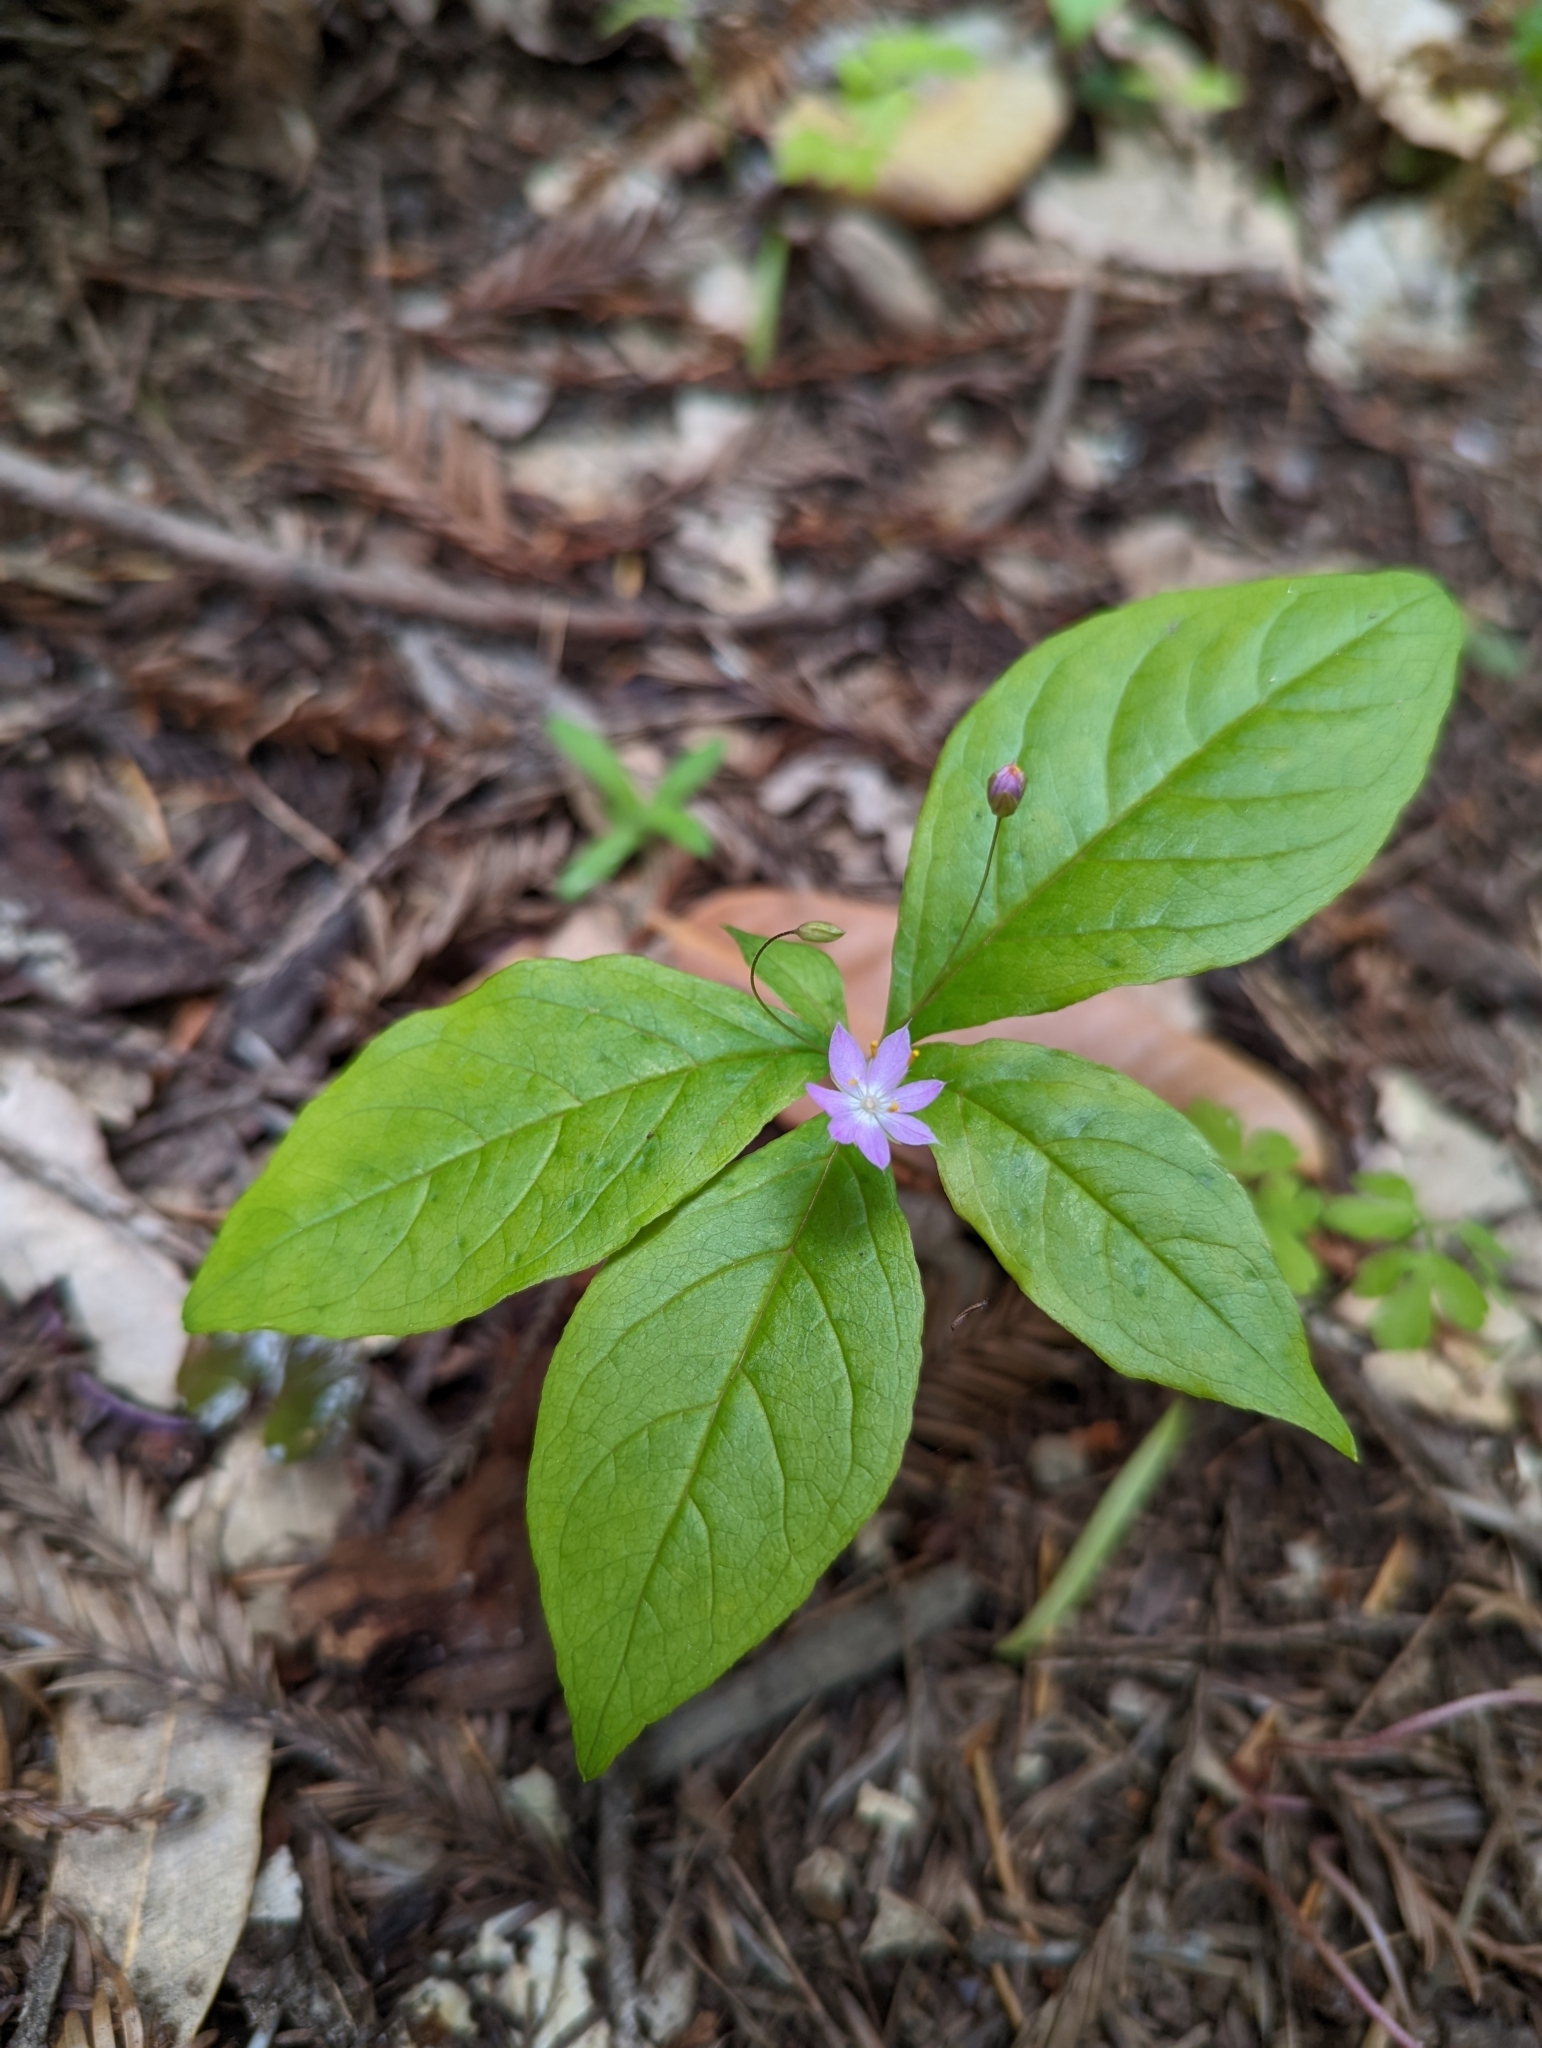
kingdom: Plantae
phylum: Tracheophyta
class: Magnoliopsida
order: Ericales
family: Primulaceae
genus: Lysimachia
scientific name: Lysimachia latifolia
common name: Pacific starflower
